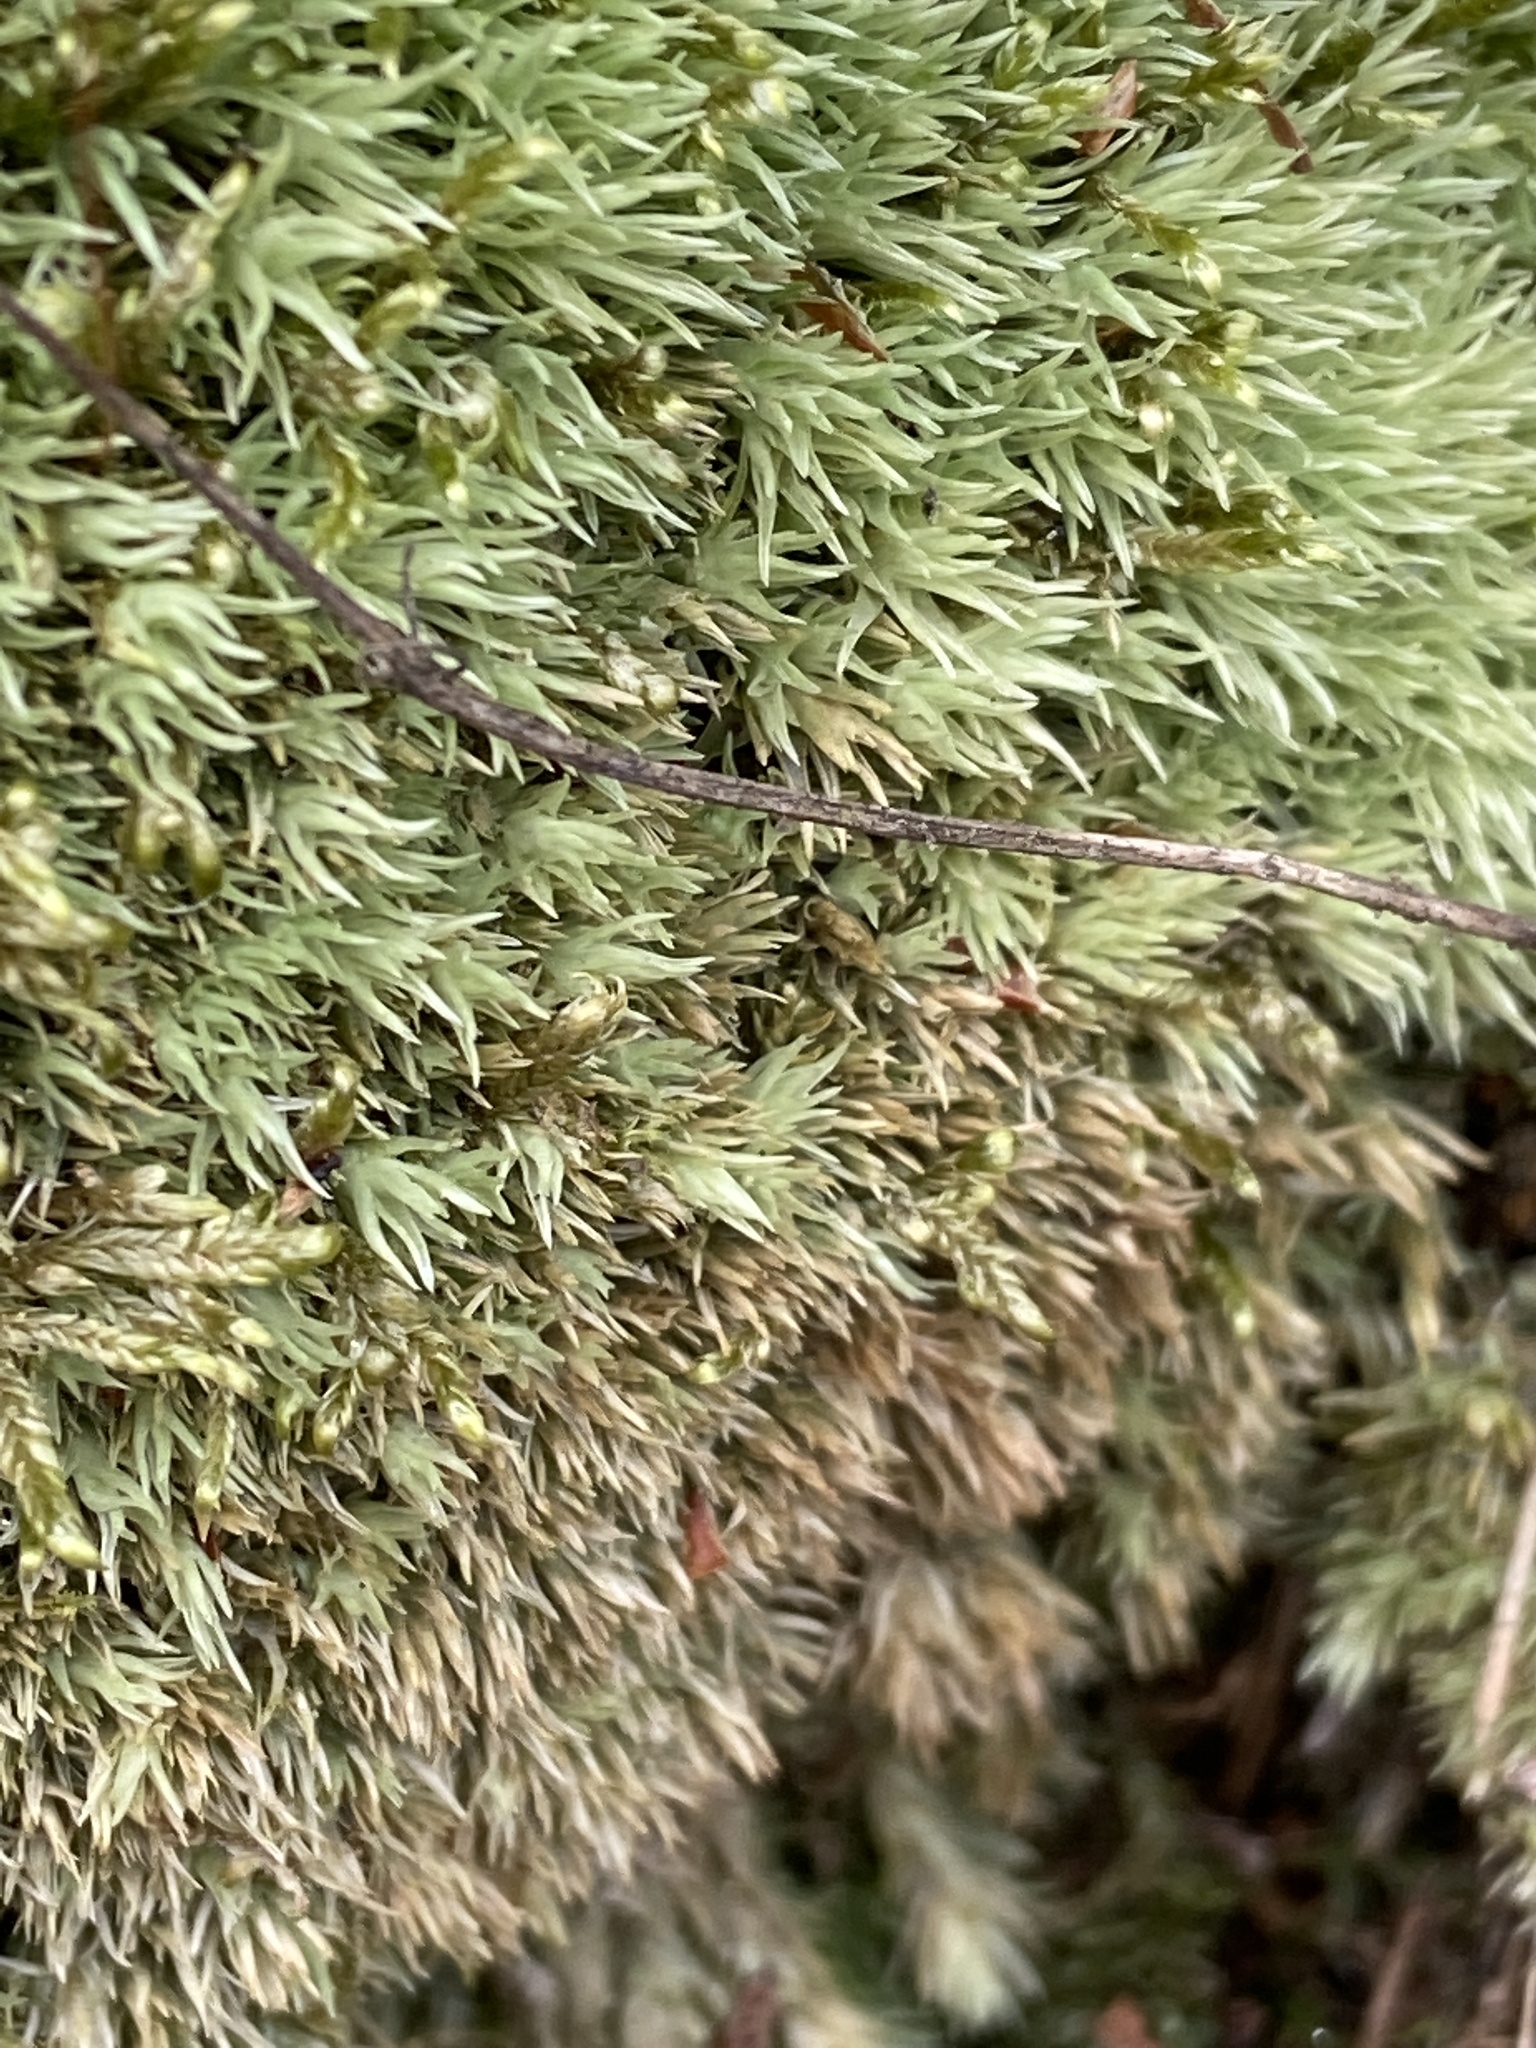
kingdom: Plantae
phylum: Bryophyta
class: Bryopsida
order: Dicranales
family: Leucobryaceae
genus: Leucobryum
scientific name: Leucobryum glaucum
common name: Large white-moss
